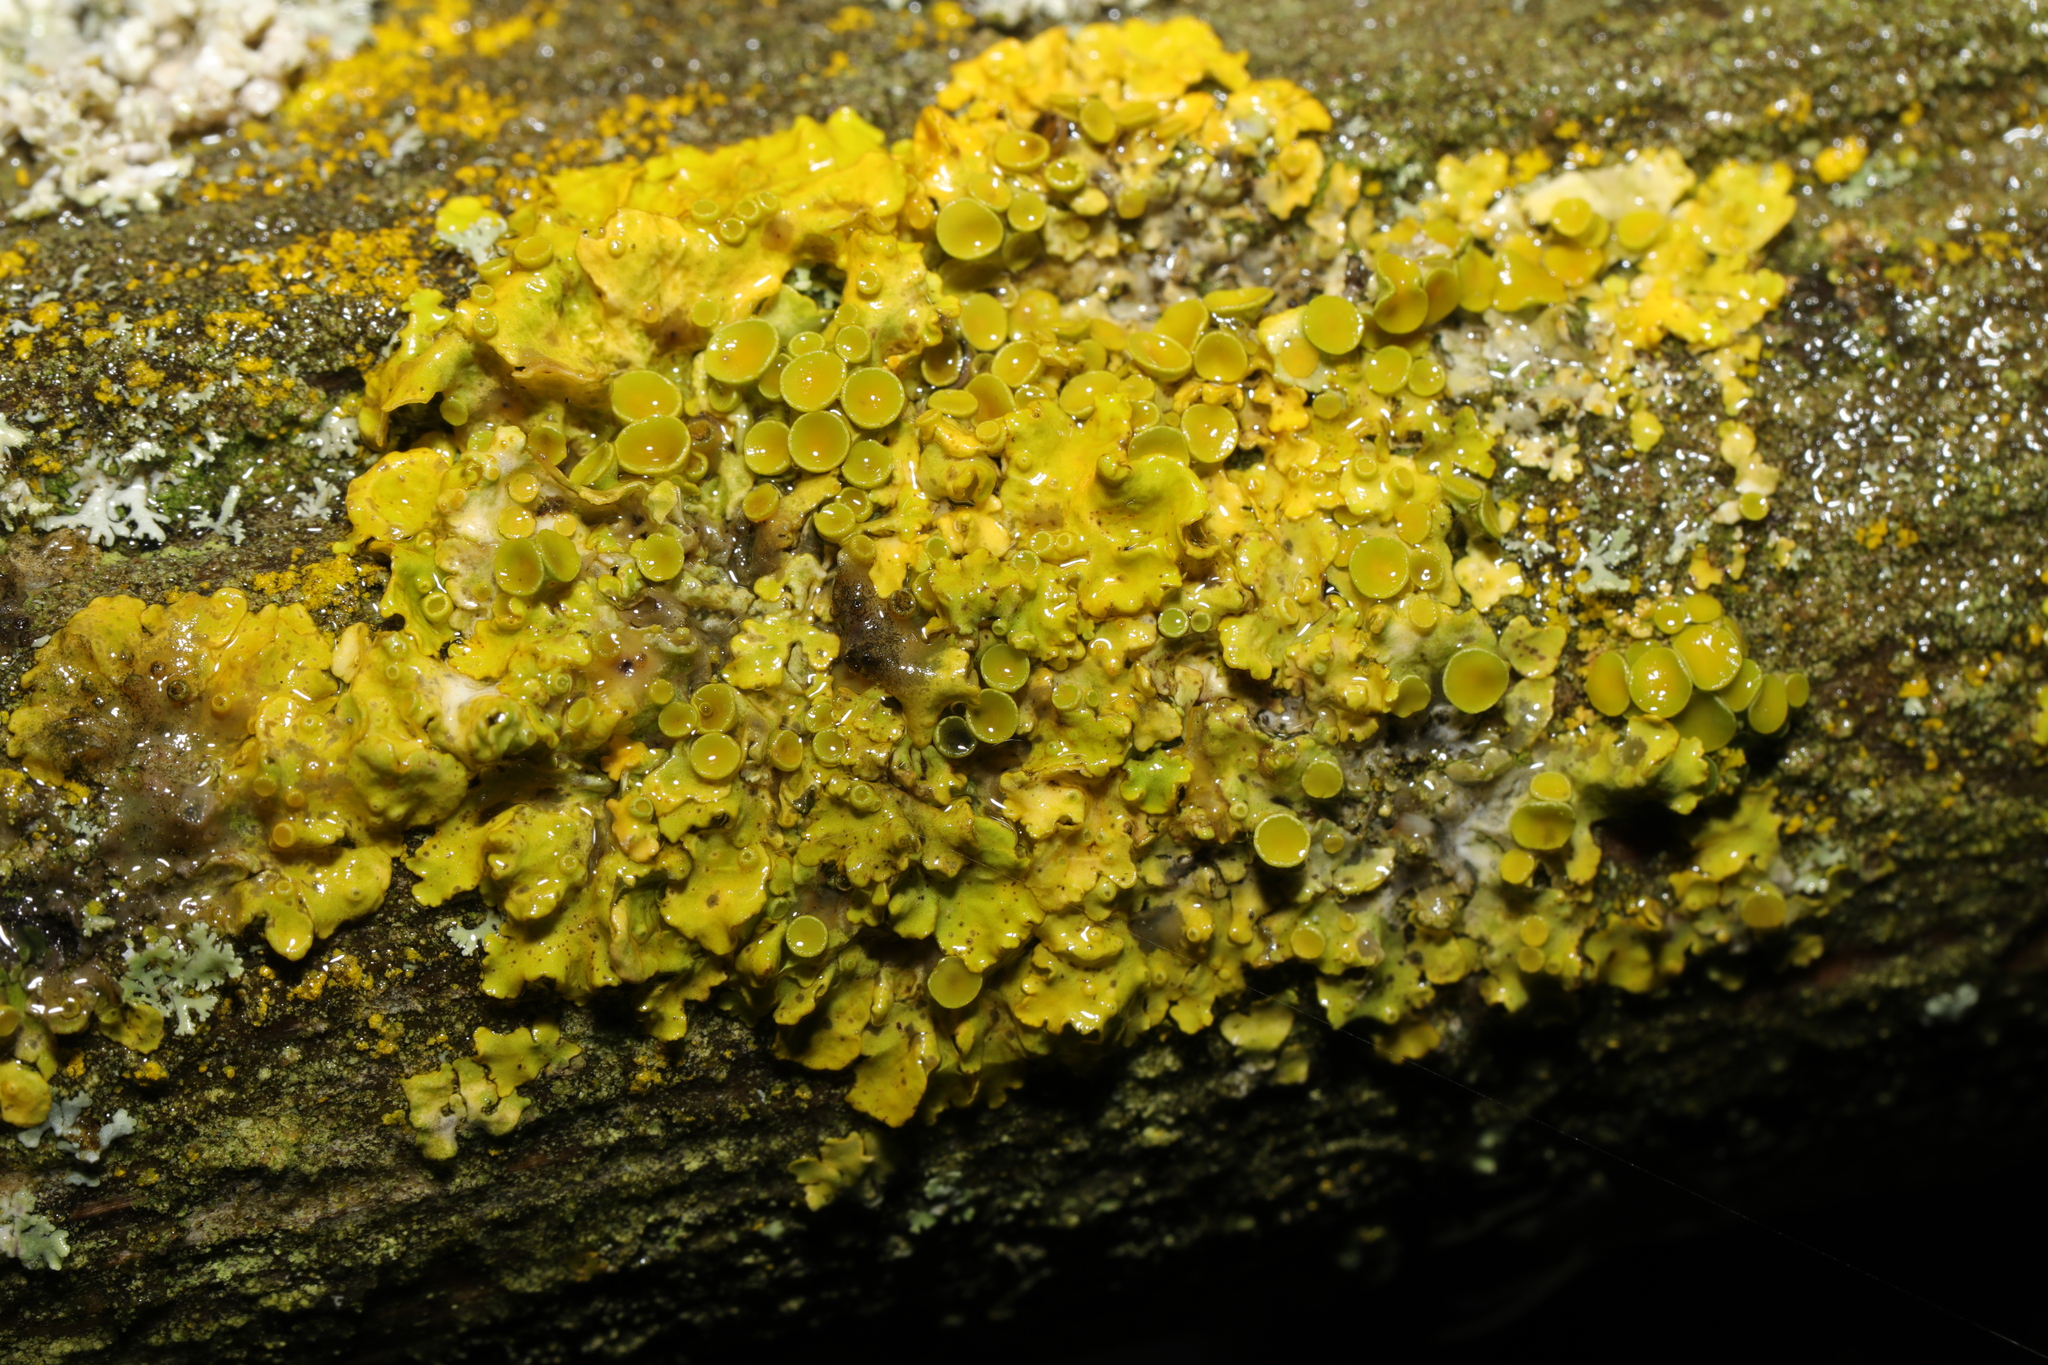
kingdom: Fungi
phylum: Ascomycota
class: Lecanoromycetes
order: Teloschistales
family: Teloschistaceae
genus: Xanthoria
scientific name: Xanthoria parietina
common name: Common orange lichen
